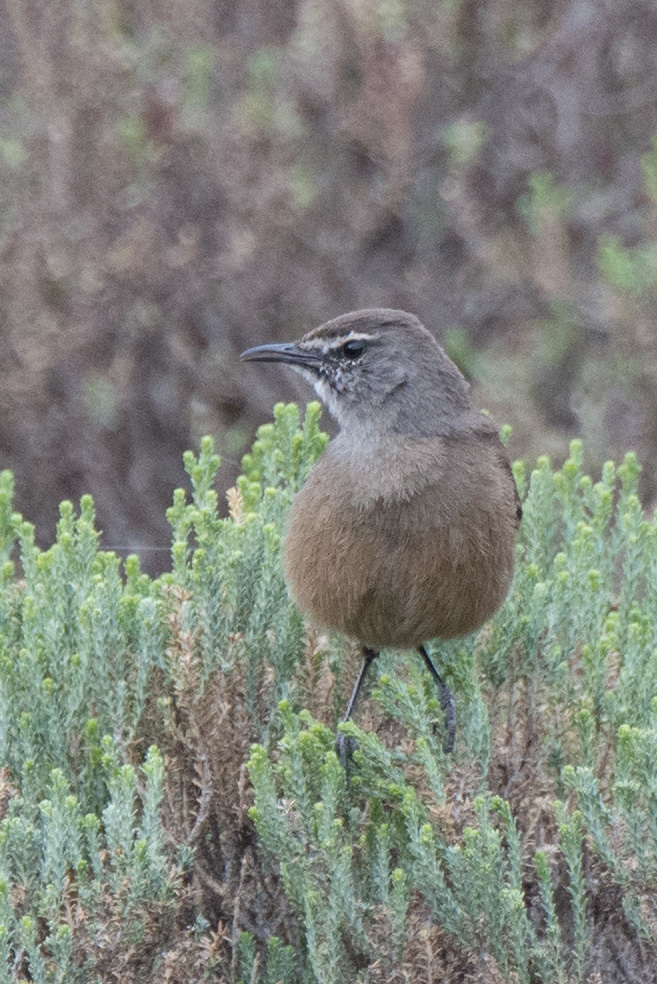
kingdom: Animalia
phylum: Chordata
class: Aves
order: Passeriformes
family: Muscicapidae
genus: Erythropygia
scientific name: Erythropygia coryphoeus
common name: Karoo scrub robin
